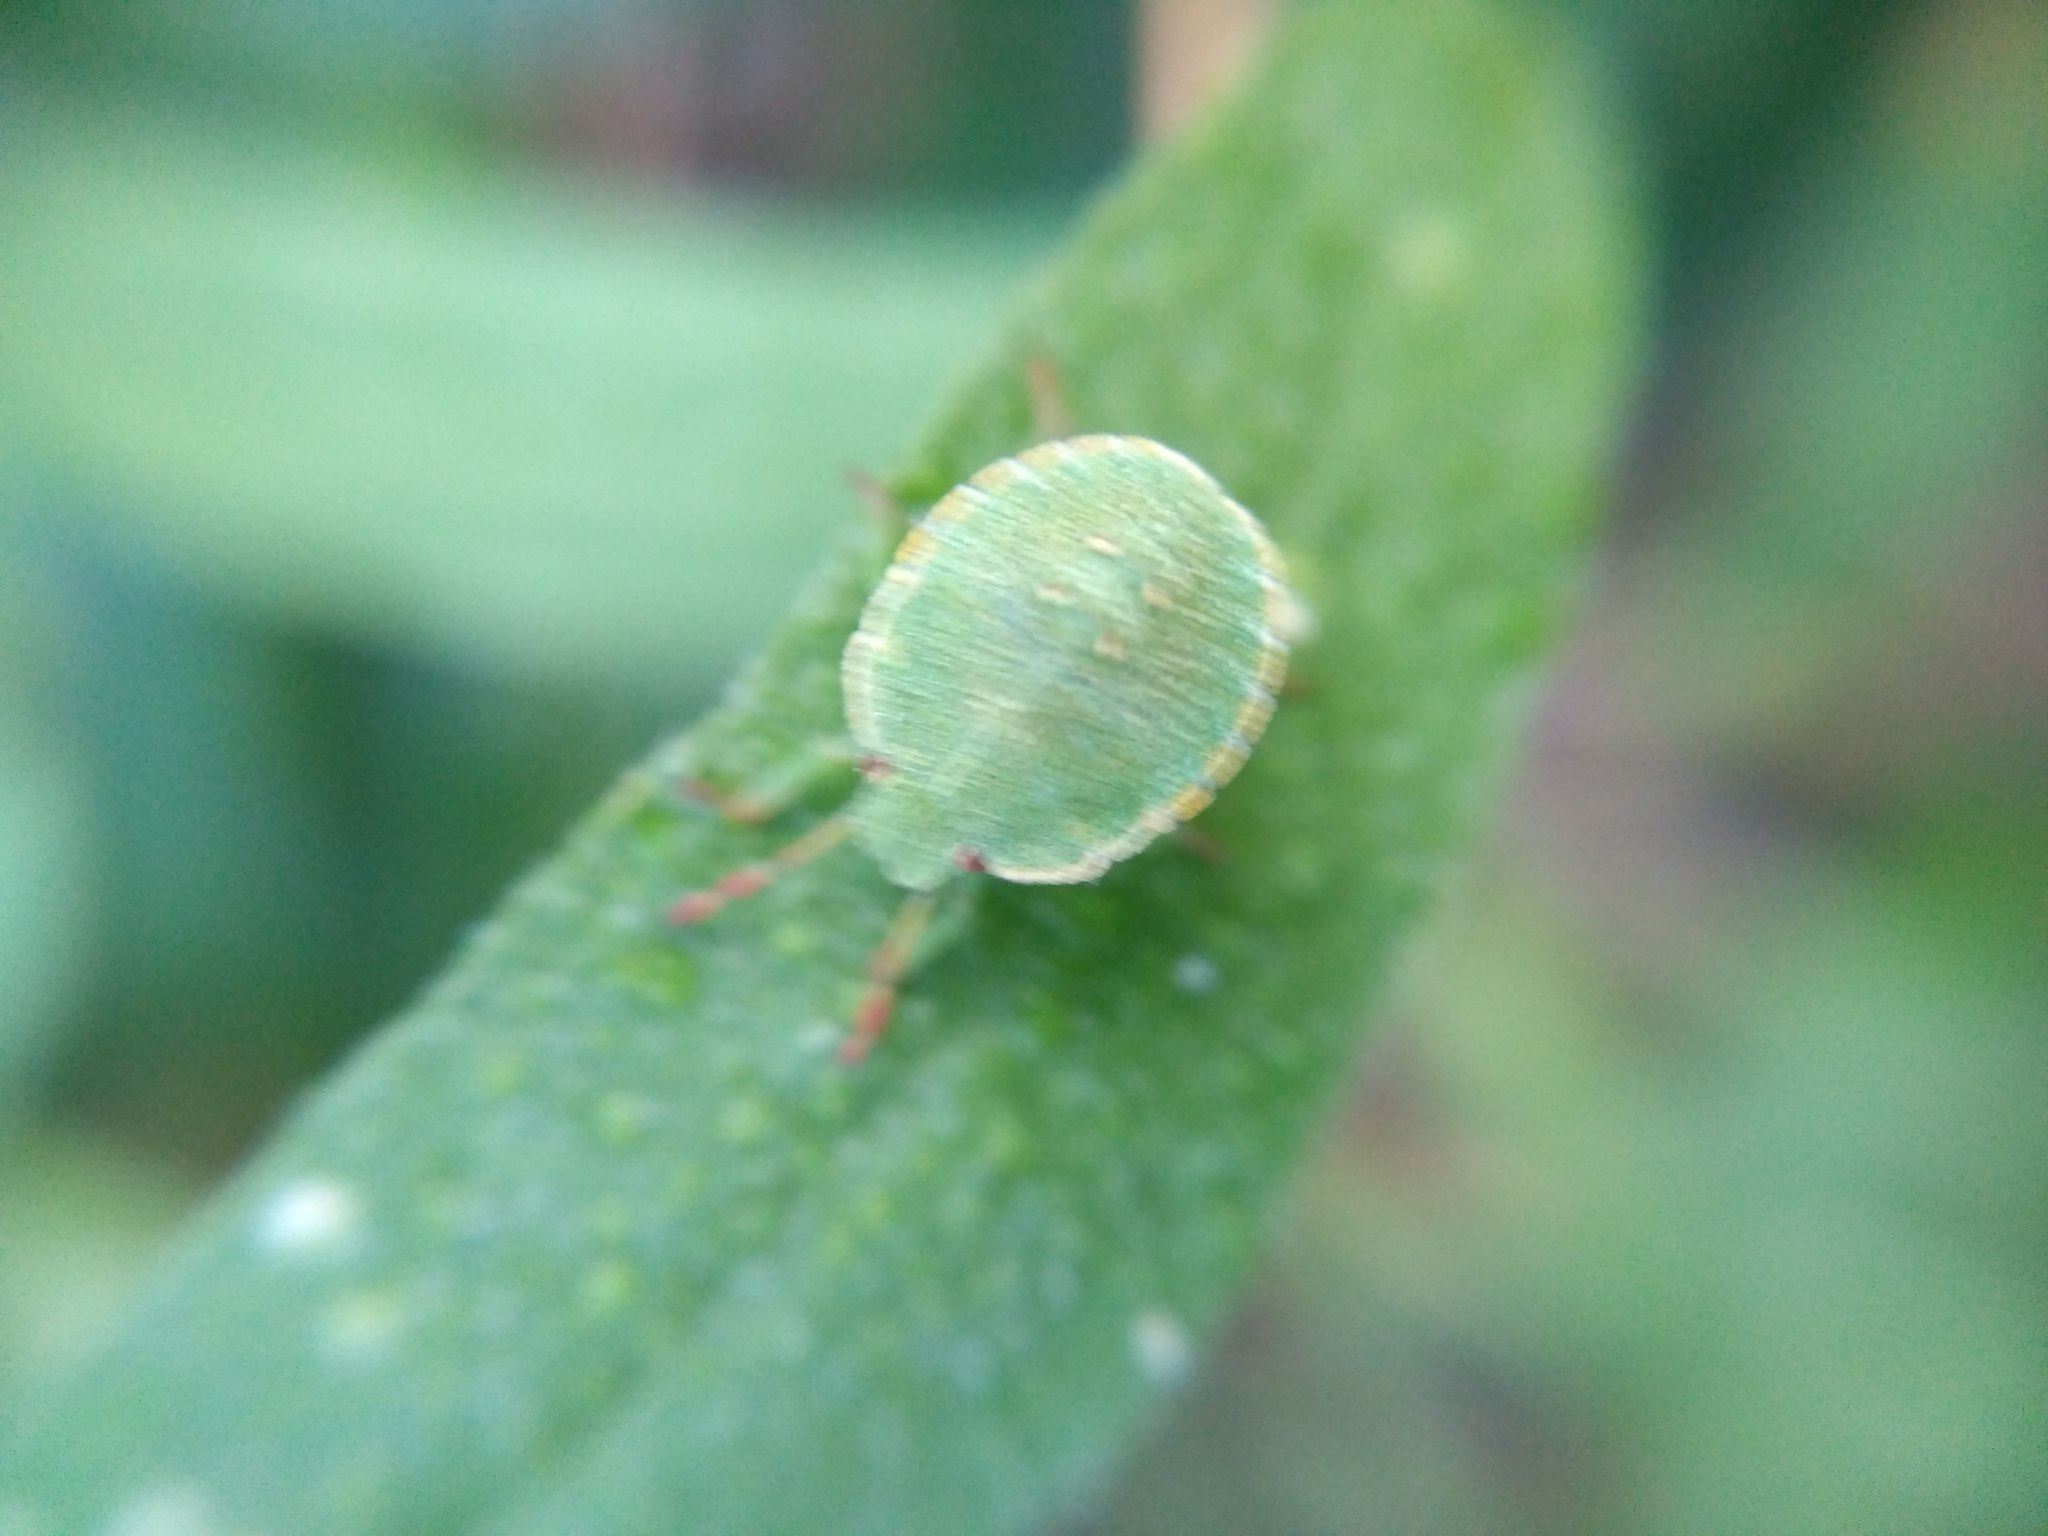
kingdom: Animalia
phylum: Arthropoda
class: Insecta
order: Hemiptera
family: Pentatomidae
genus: Palomena
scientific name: Palomena prasina
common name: Green shieldbug
